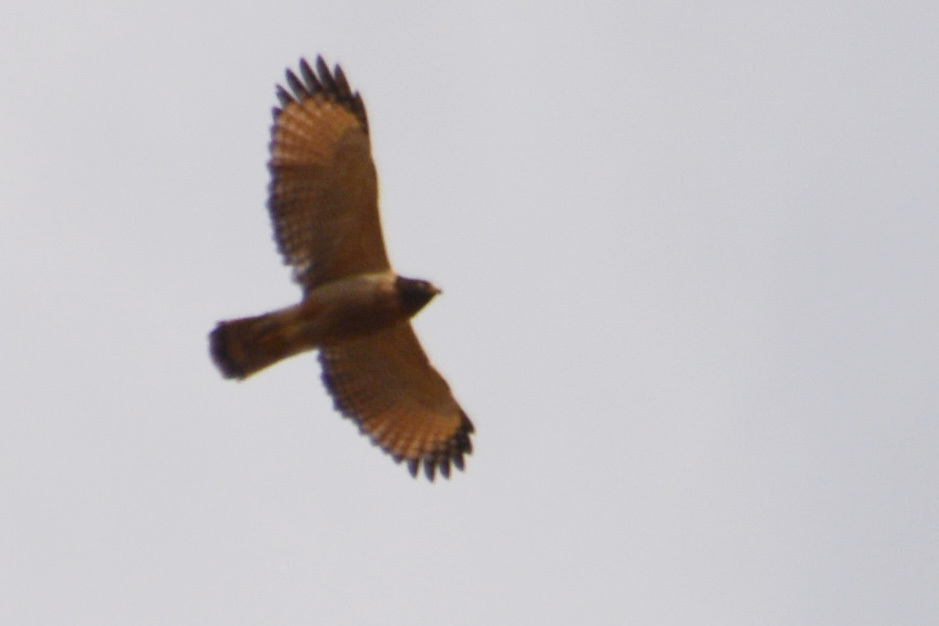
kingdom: Animalia
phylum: Chordata
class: Aves
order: Accipitriformes
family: Accipitridae
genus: Rupornis
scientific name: Rupornis magnirostris
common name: Roadside hawk
